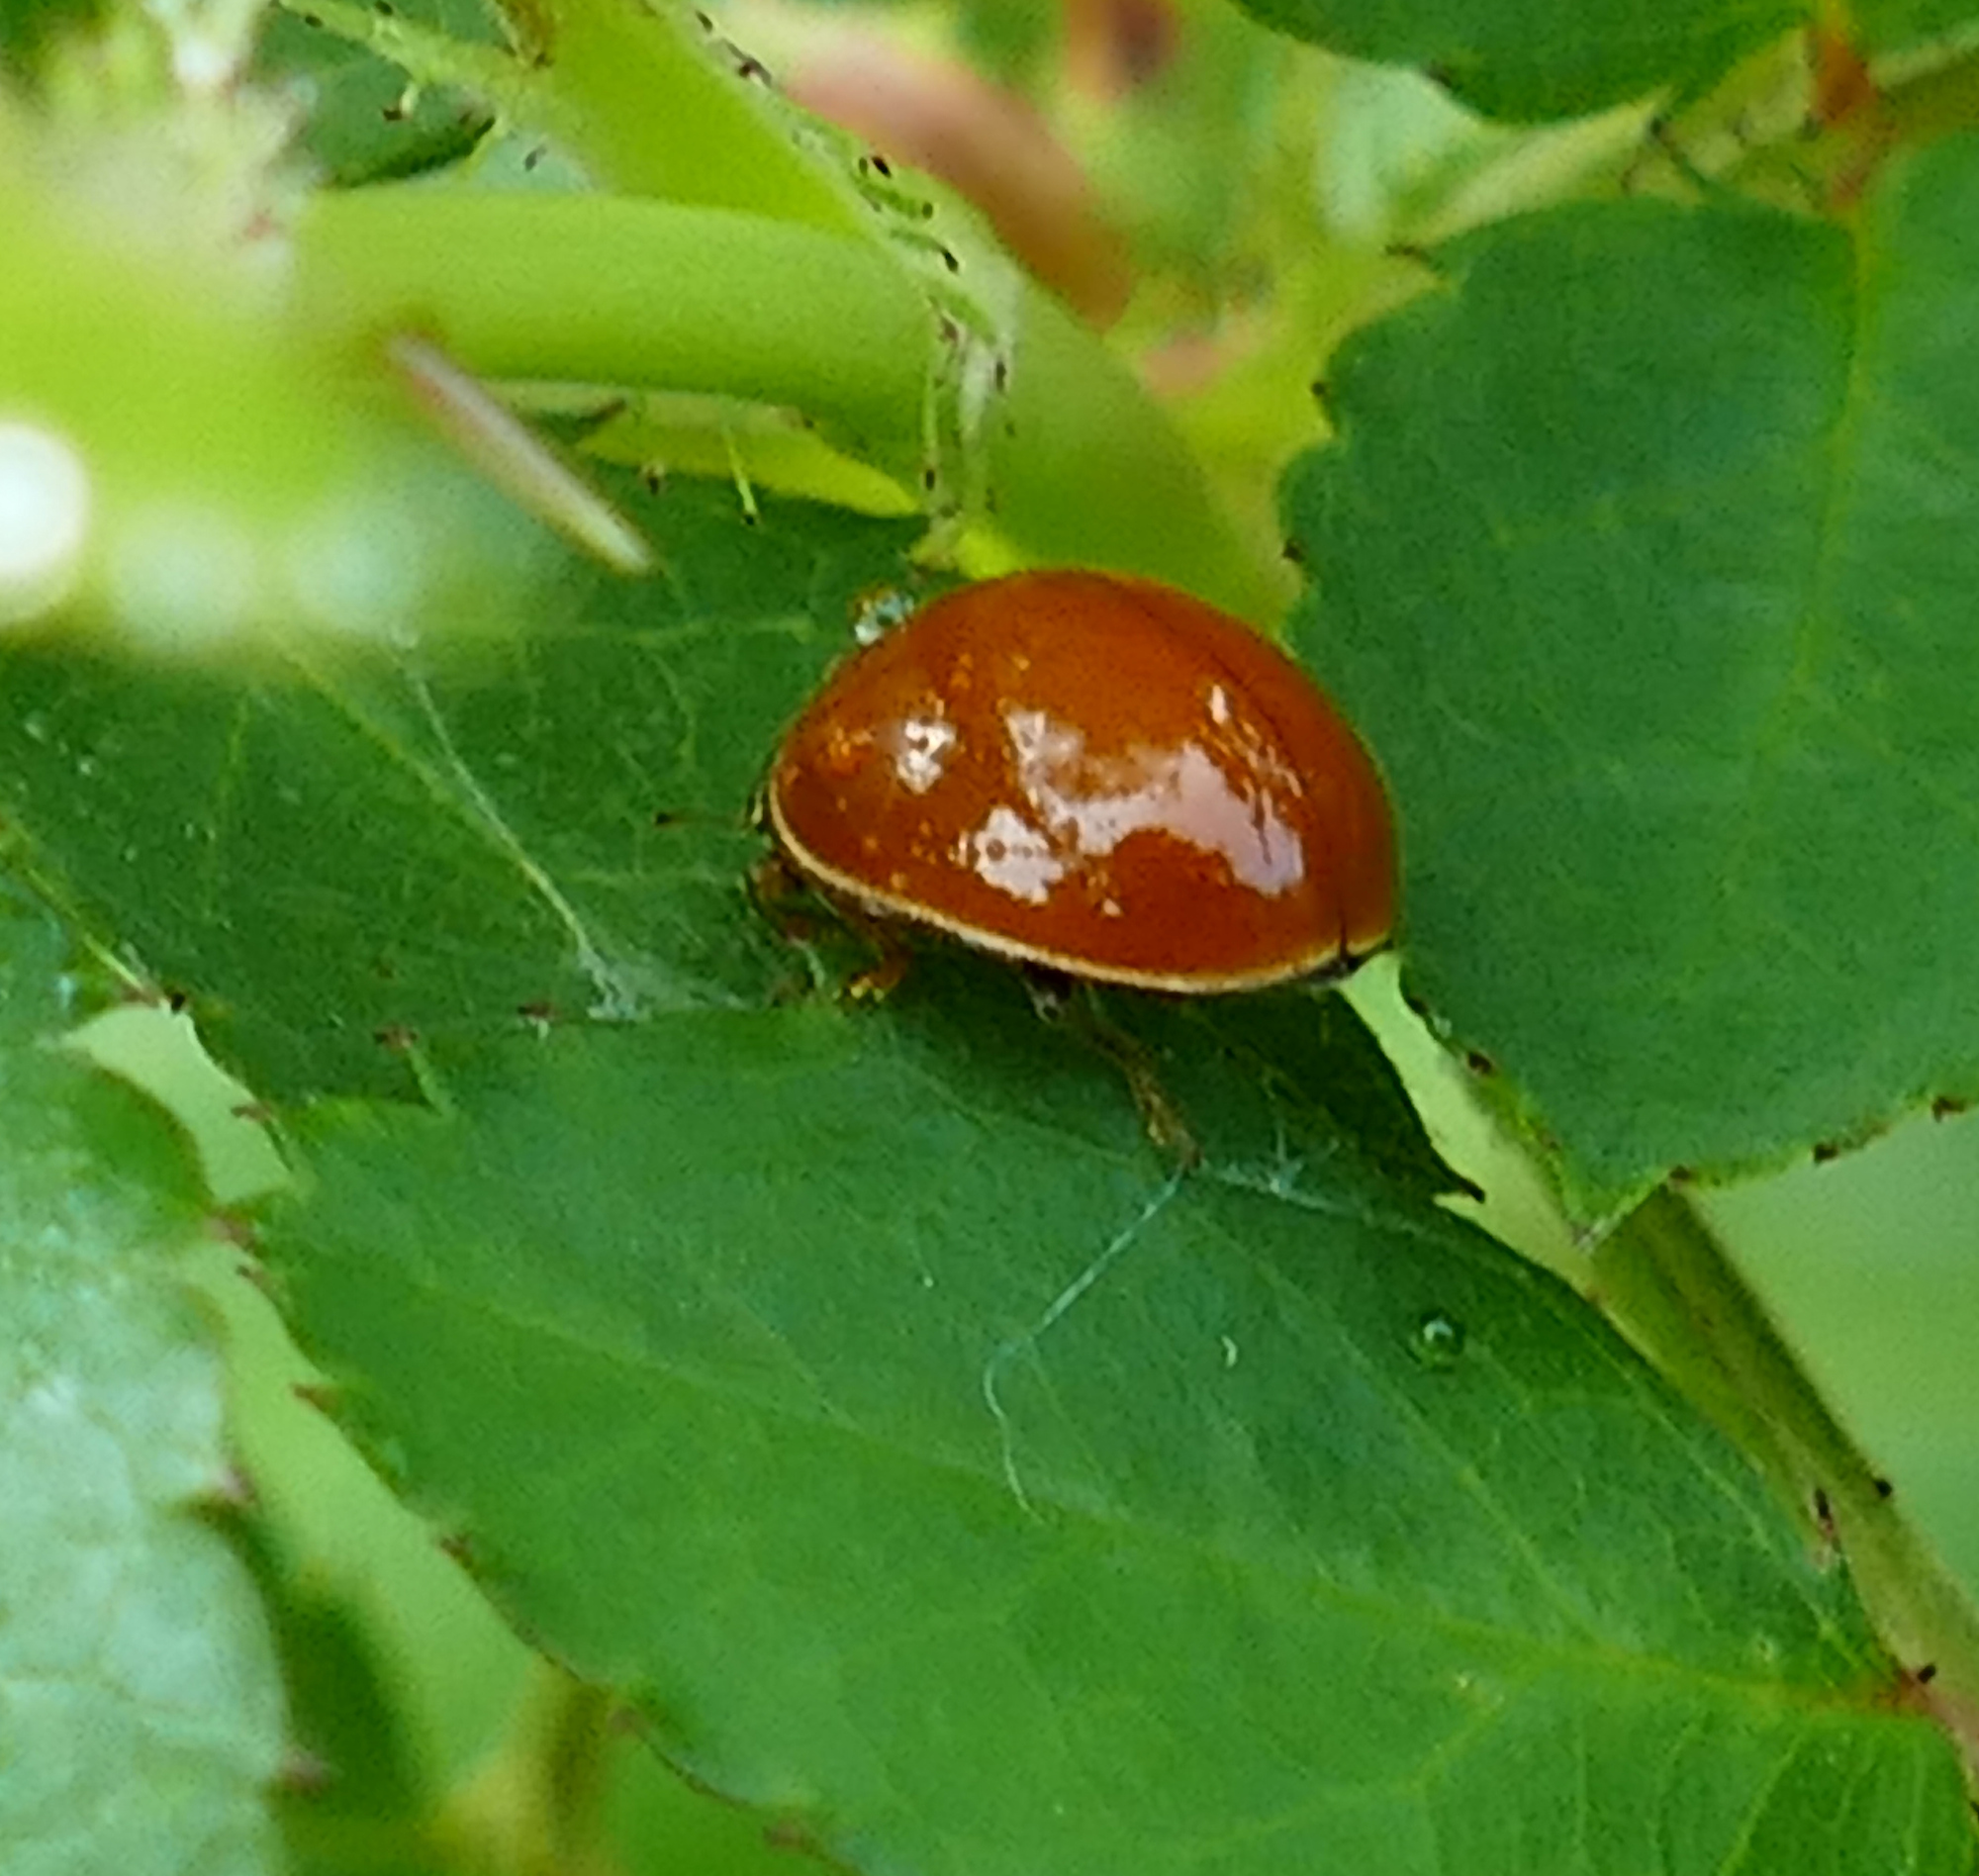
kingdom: Animalia
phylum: Arthropoda
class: Insecta
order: Coleoptera
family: Coccinellidae
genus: Cycloneda
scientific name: Cycloneda munda
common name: Polished lady beetle
